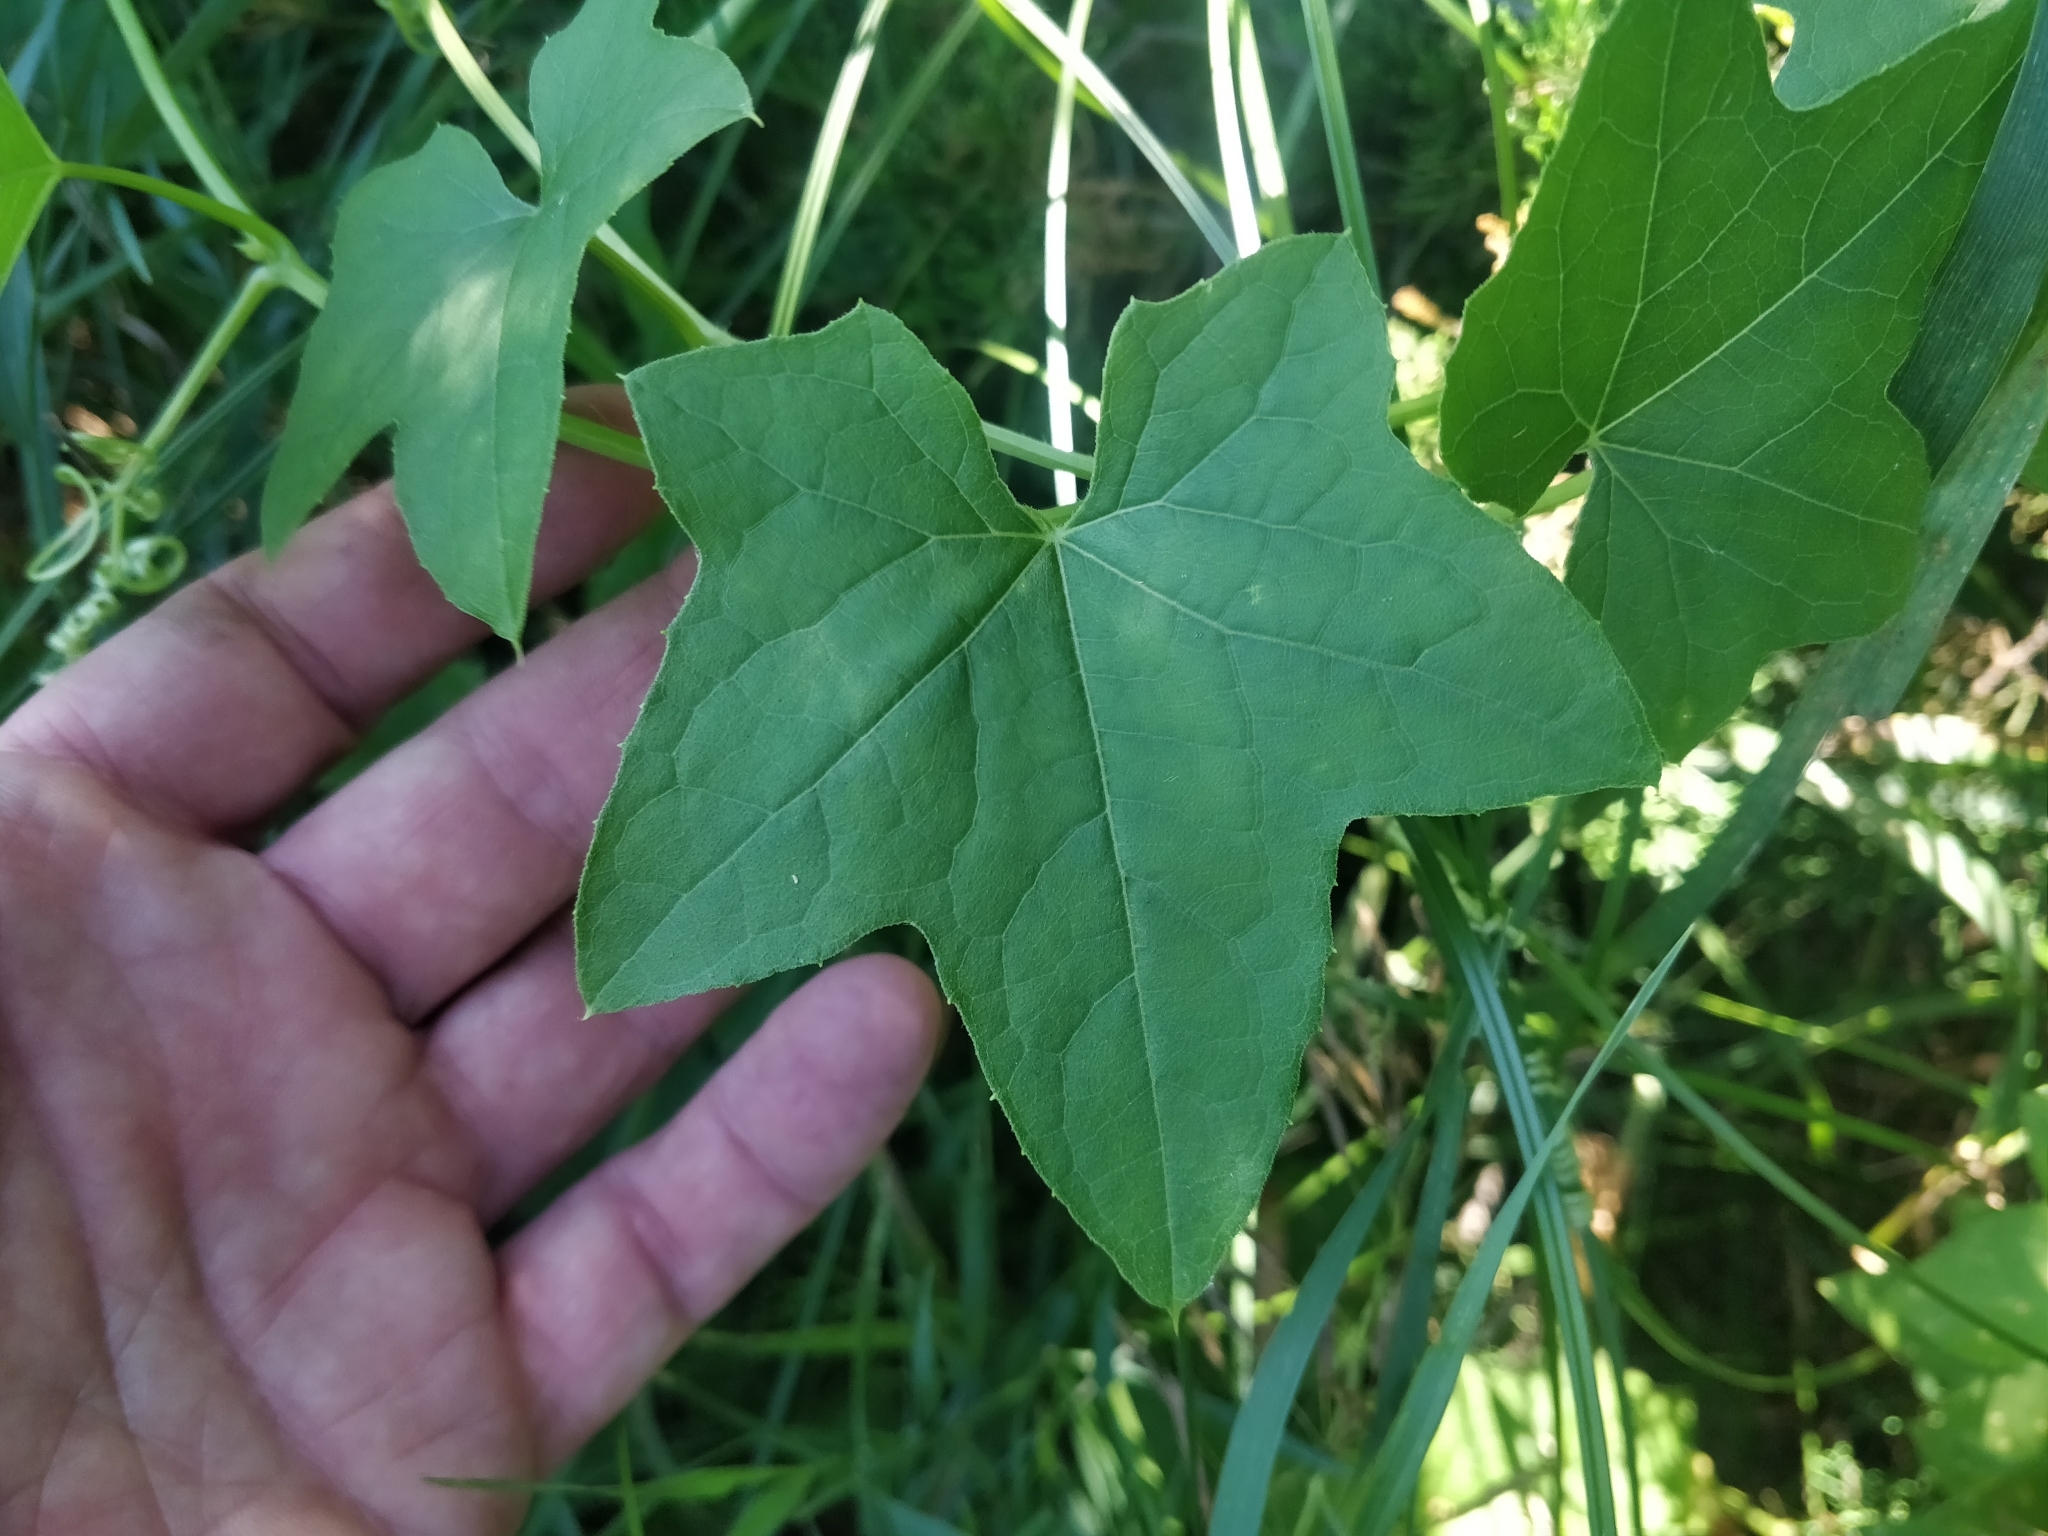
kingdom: Plantae
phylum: Tracheophyta
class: Magnoliopsida
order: Cucurbitales
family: Cucurbitaceae
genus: Echinocystis
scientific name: Echinocystis lobata
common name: Wild cucumber
